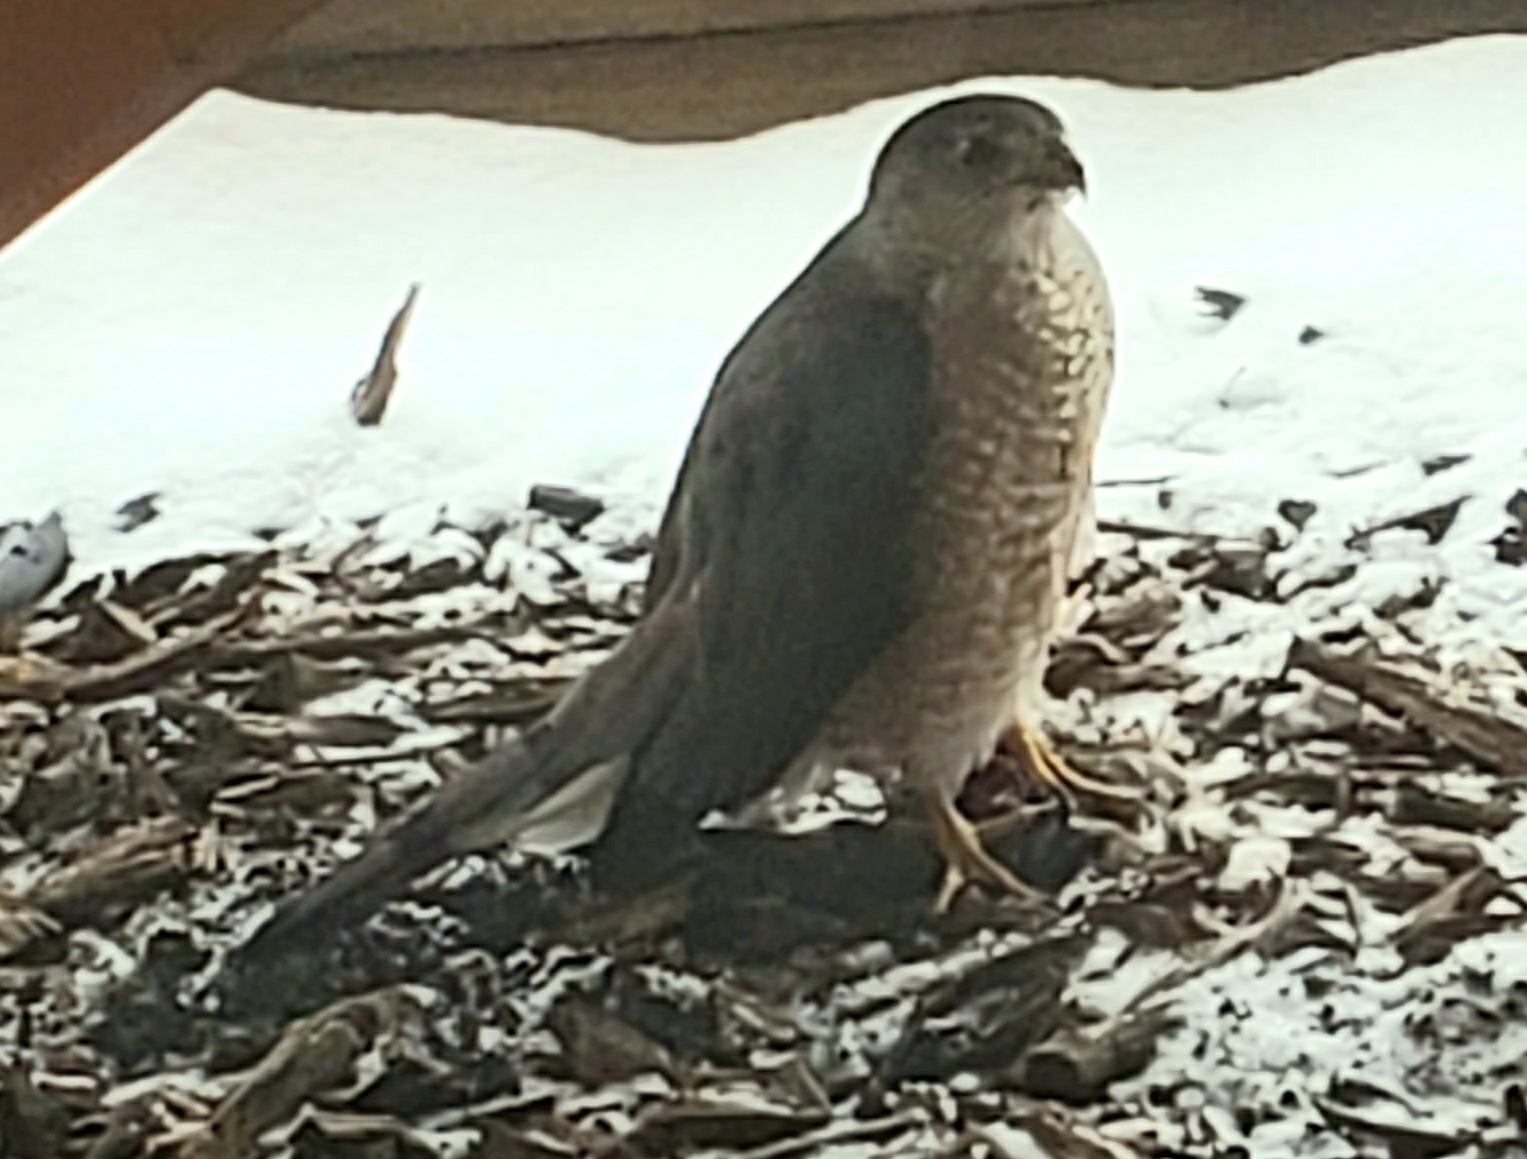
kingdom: Animalia
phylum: Chordata
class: Aves
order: Accipitriformes
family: Accipitridae
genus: Accipiter
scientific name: Accipiter cooperii
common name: Cooper's hawk
